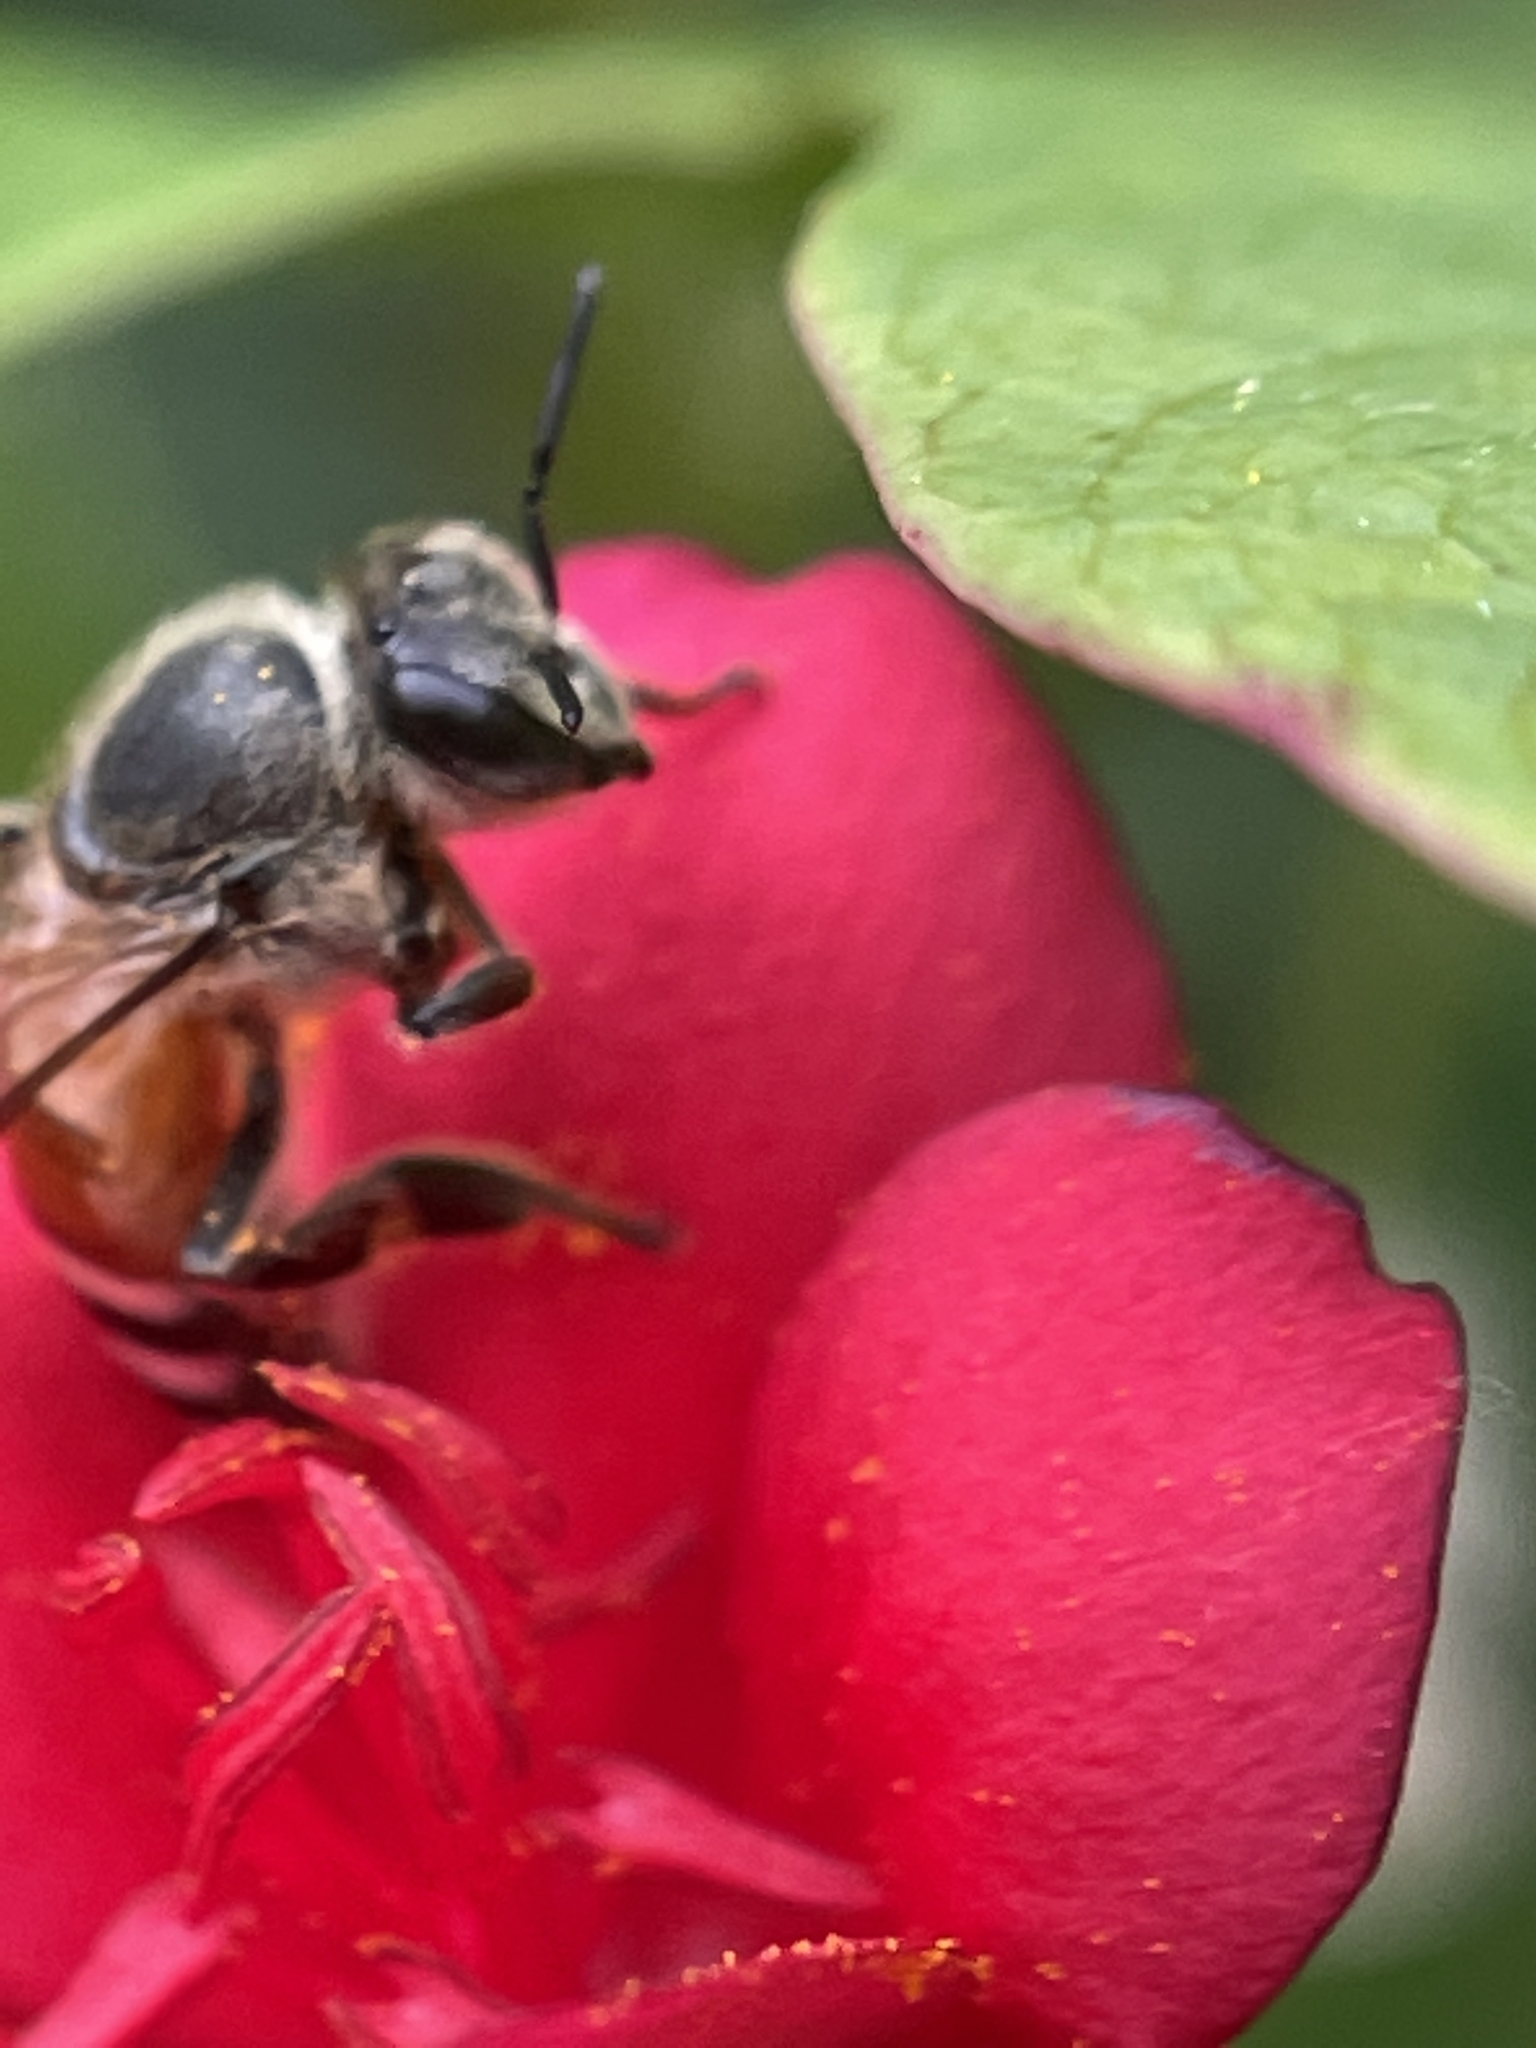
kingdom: Animalia
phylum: Arthropoda
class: Insecta
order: Hymenoptera
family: Apidae
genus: Apis
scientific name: Apis florea
